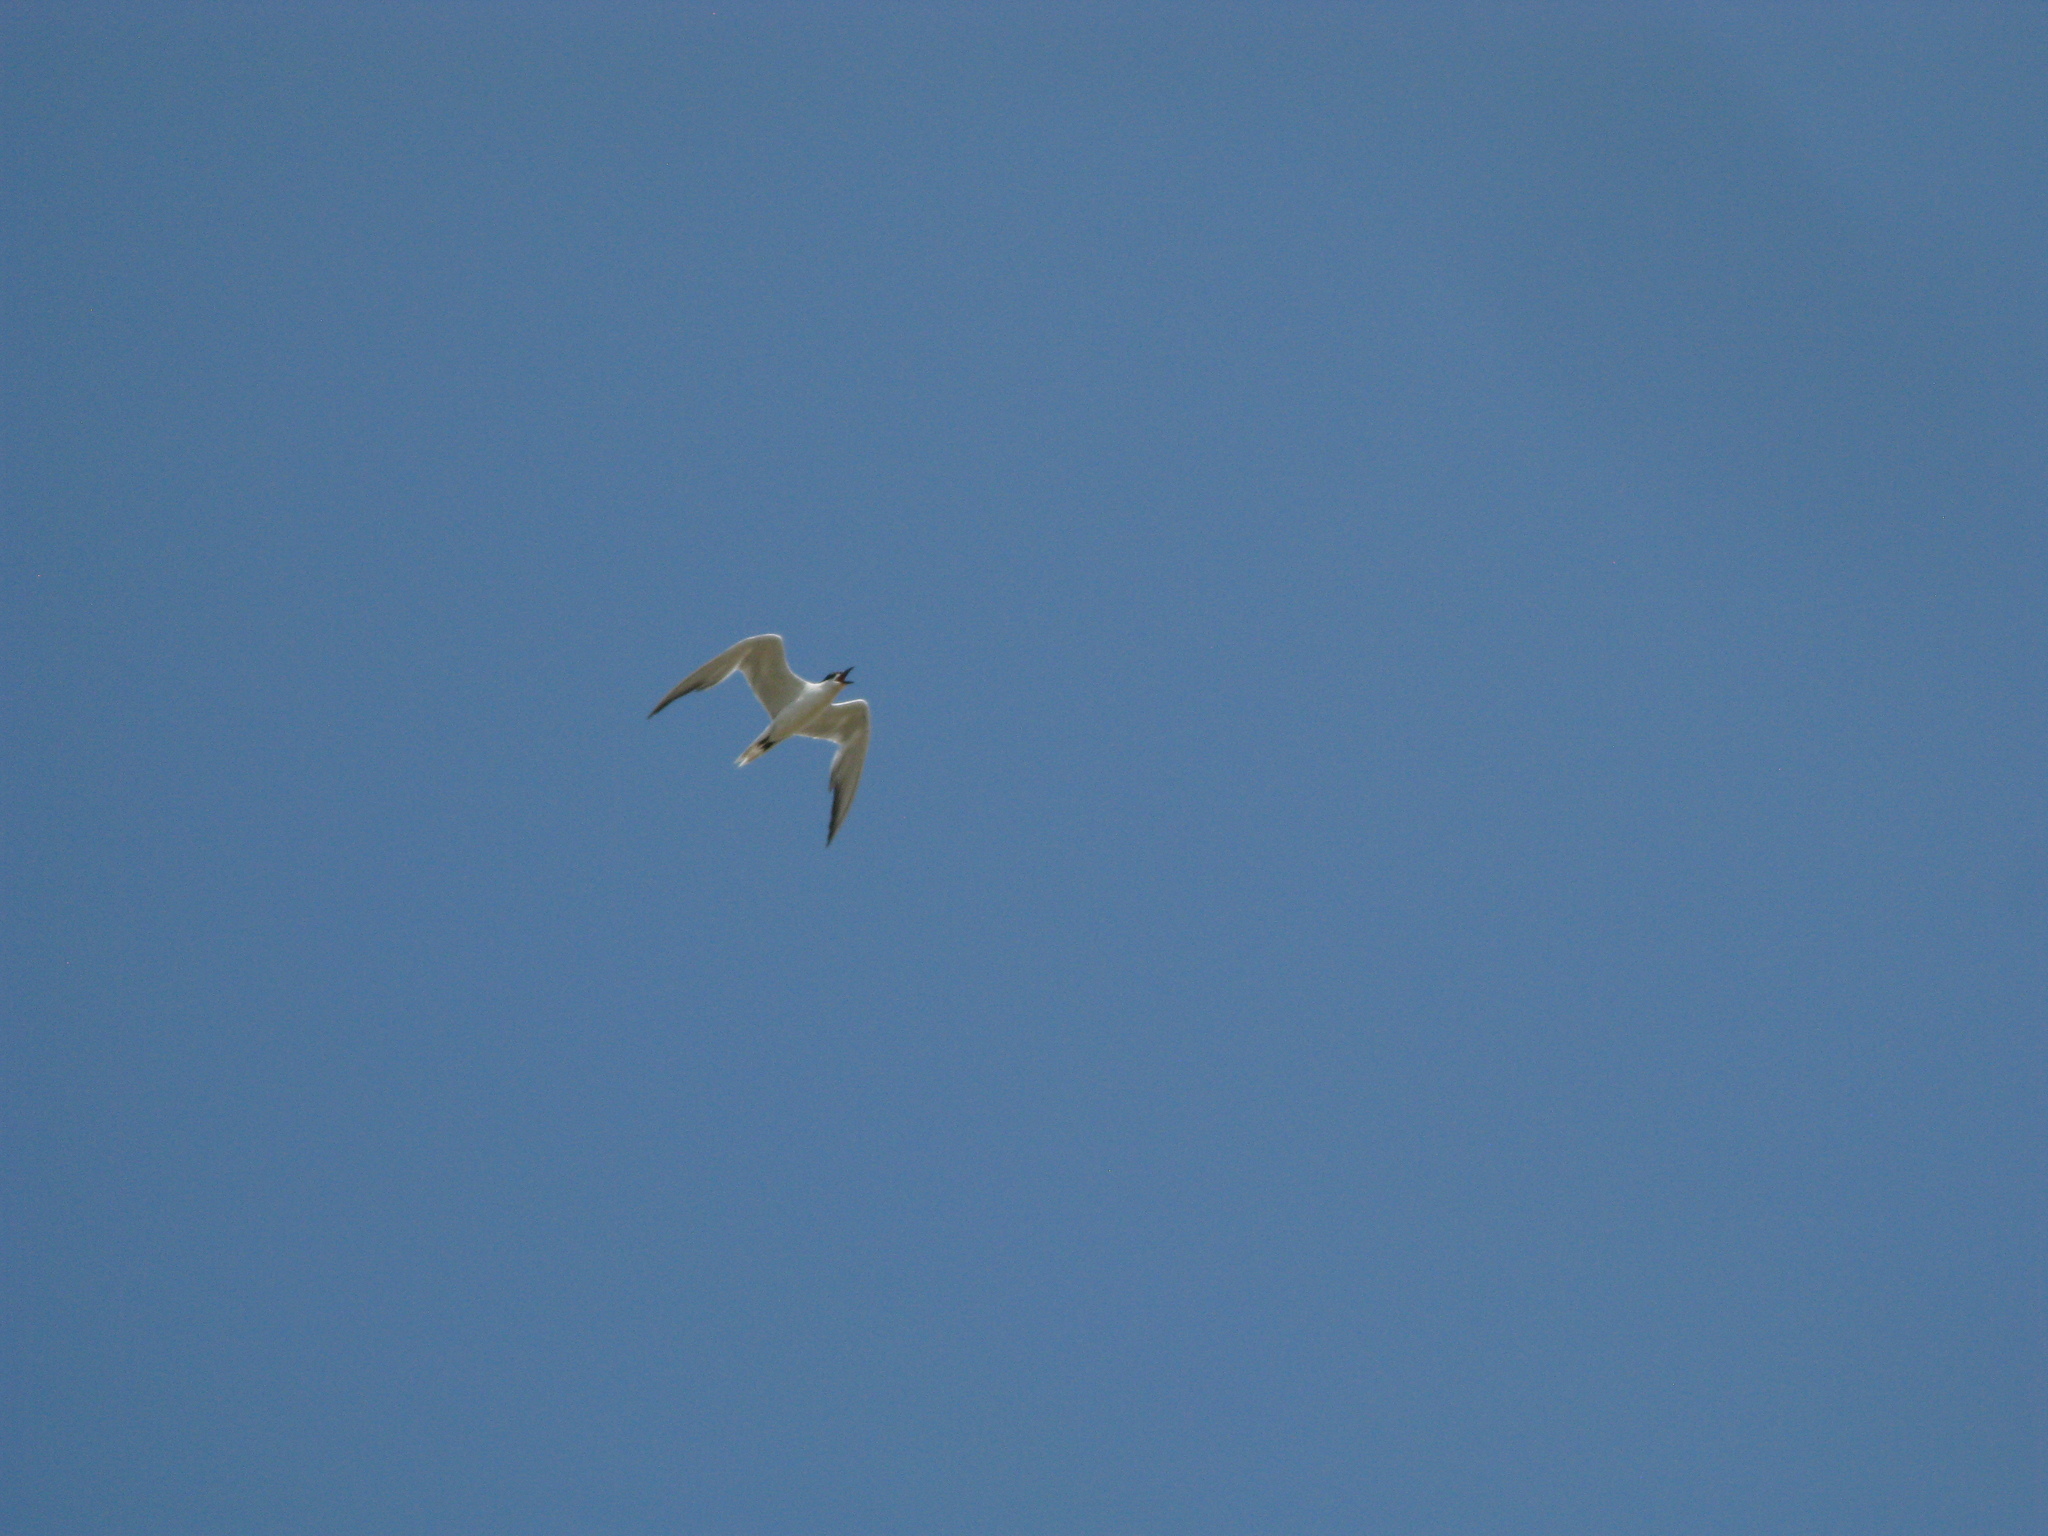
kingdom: Animalia
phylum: Chordata
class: Aves
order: Charadriiformes
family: Laridae
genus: Gelochelidon
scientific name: Gelochelidon nilotica
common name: Gull-billed tern
